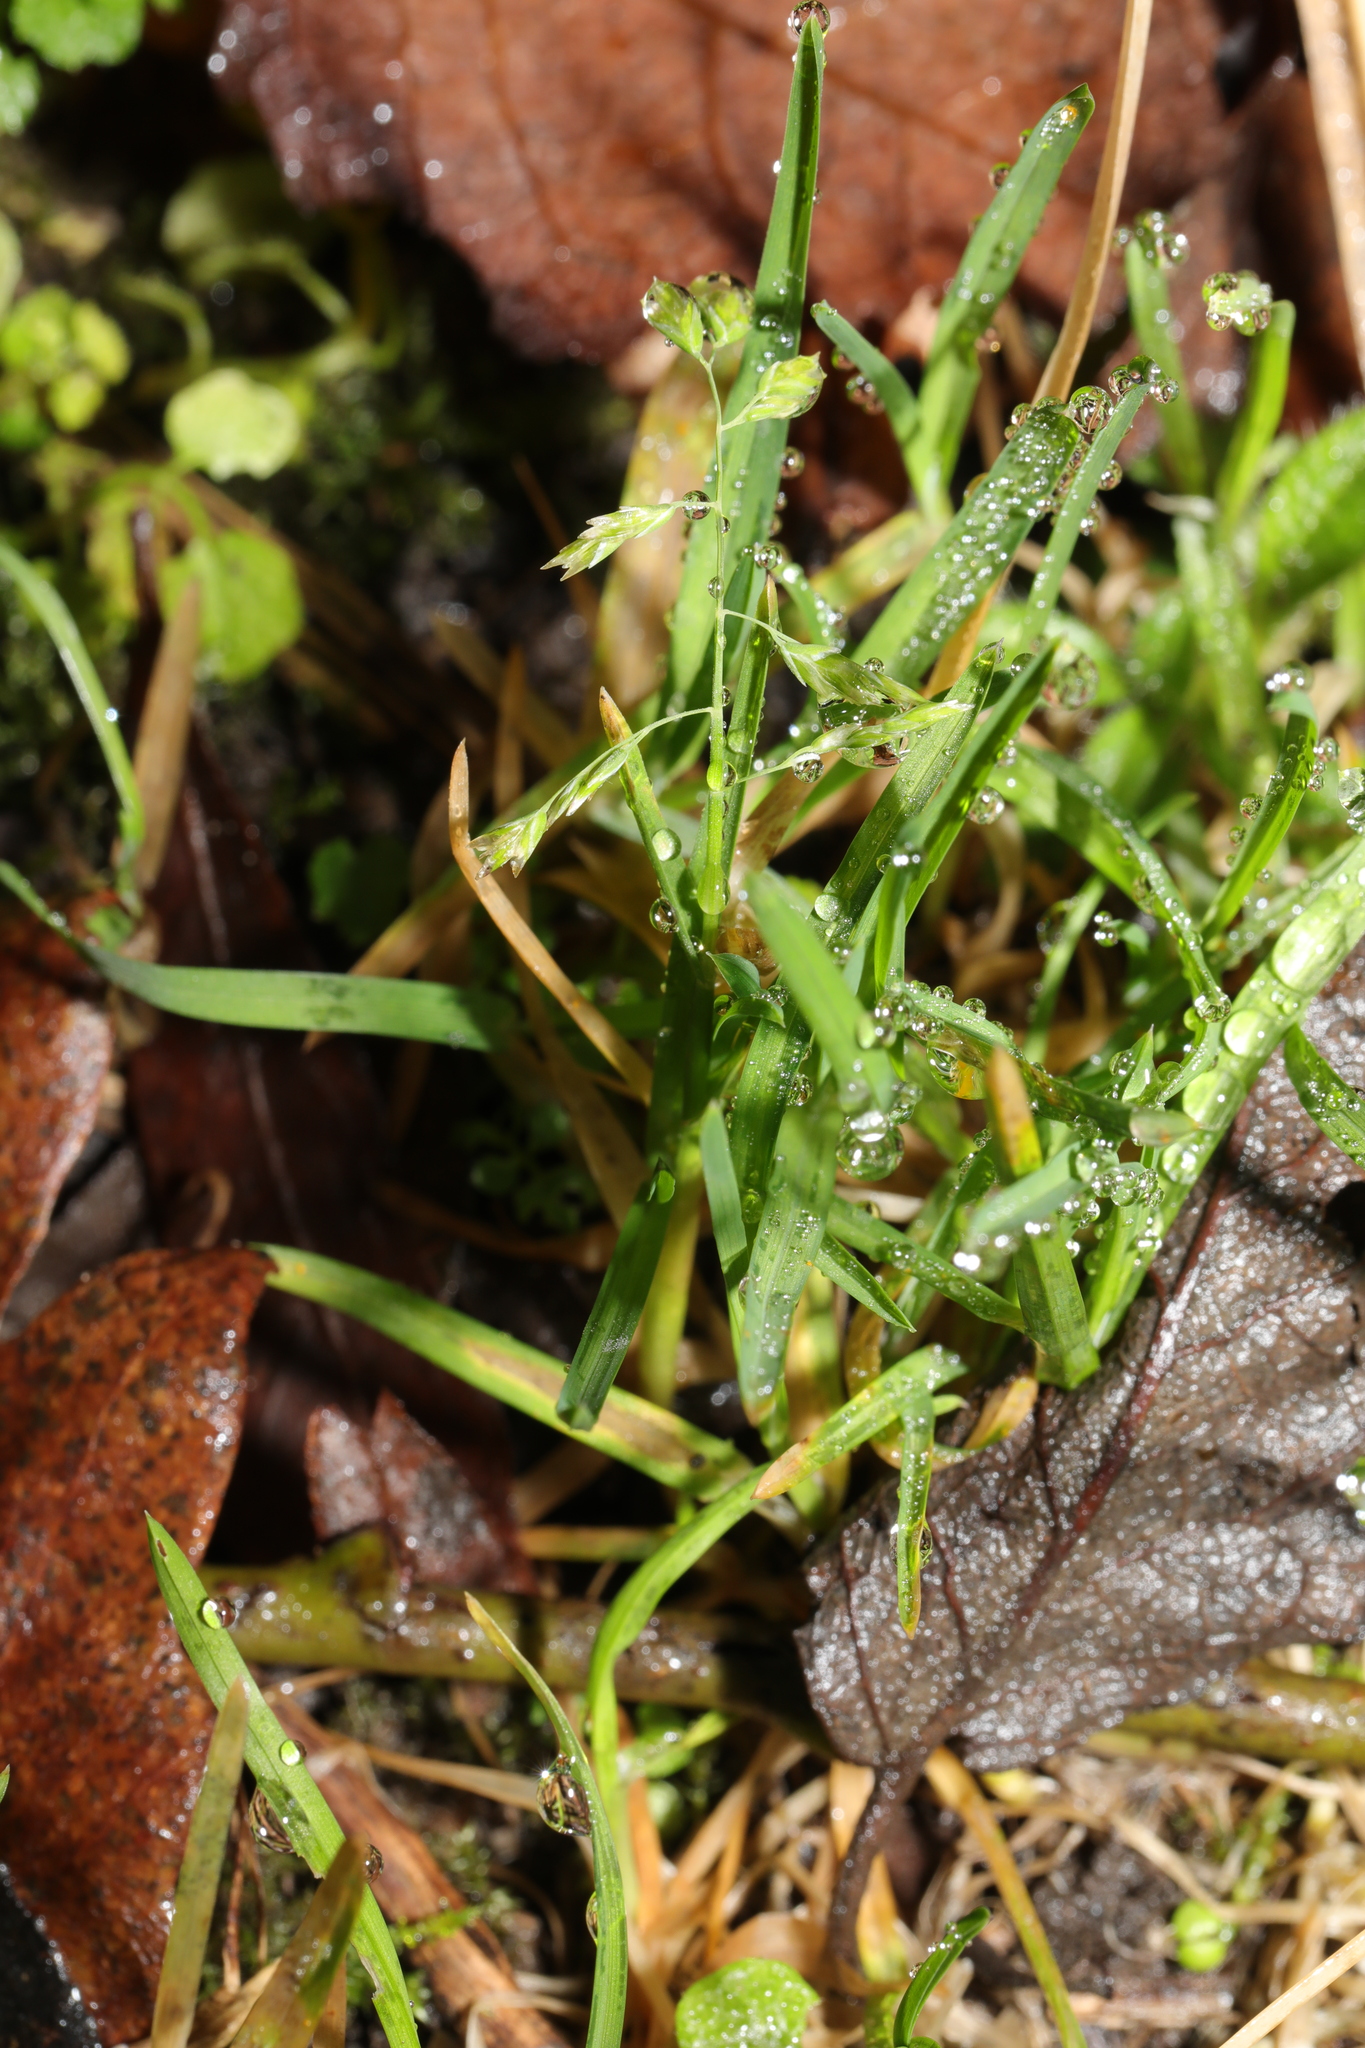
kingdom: Plantae
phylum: Tracheophyta
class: Liliopsida
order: Poales
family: Poaceae
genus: Poa
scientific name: Poa annua
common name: Annual bluegrass
